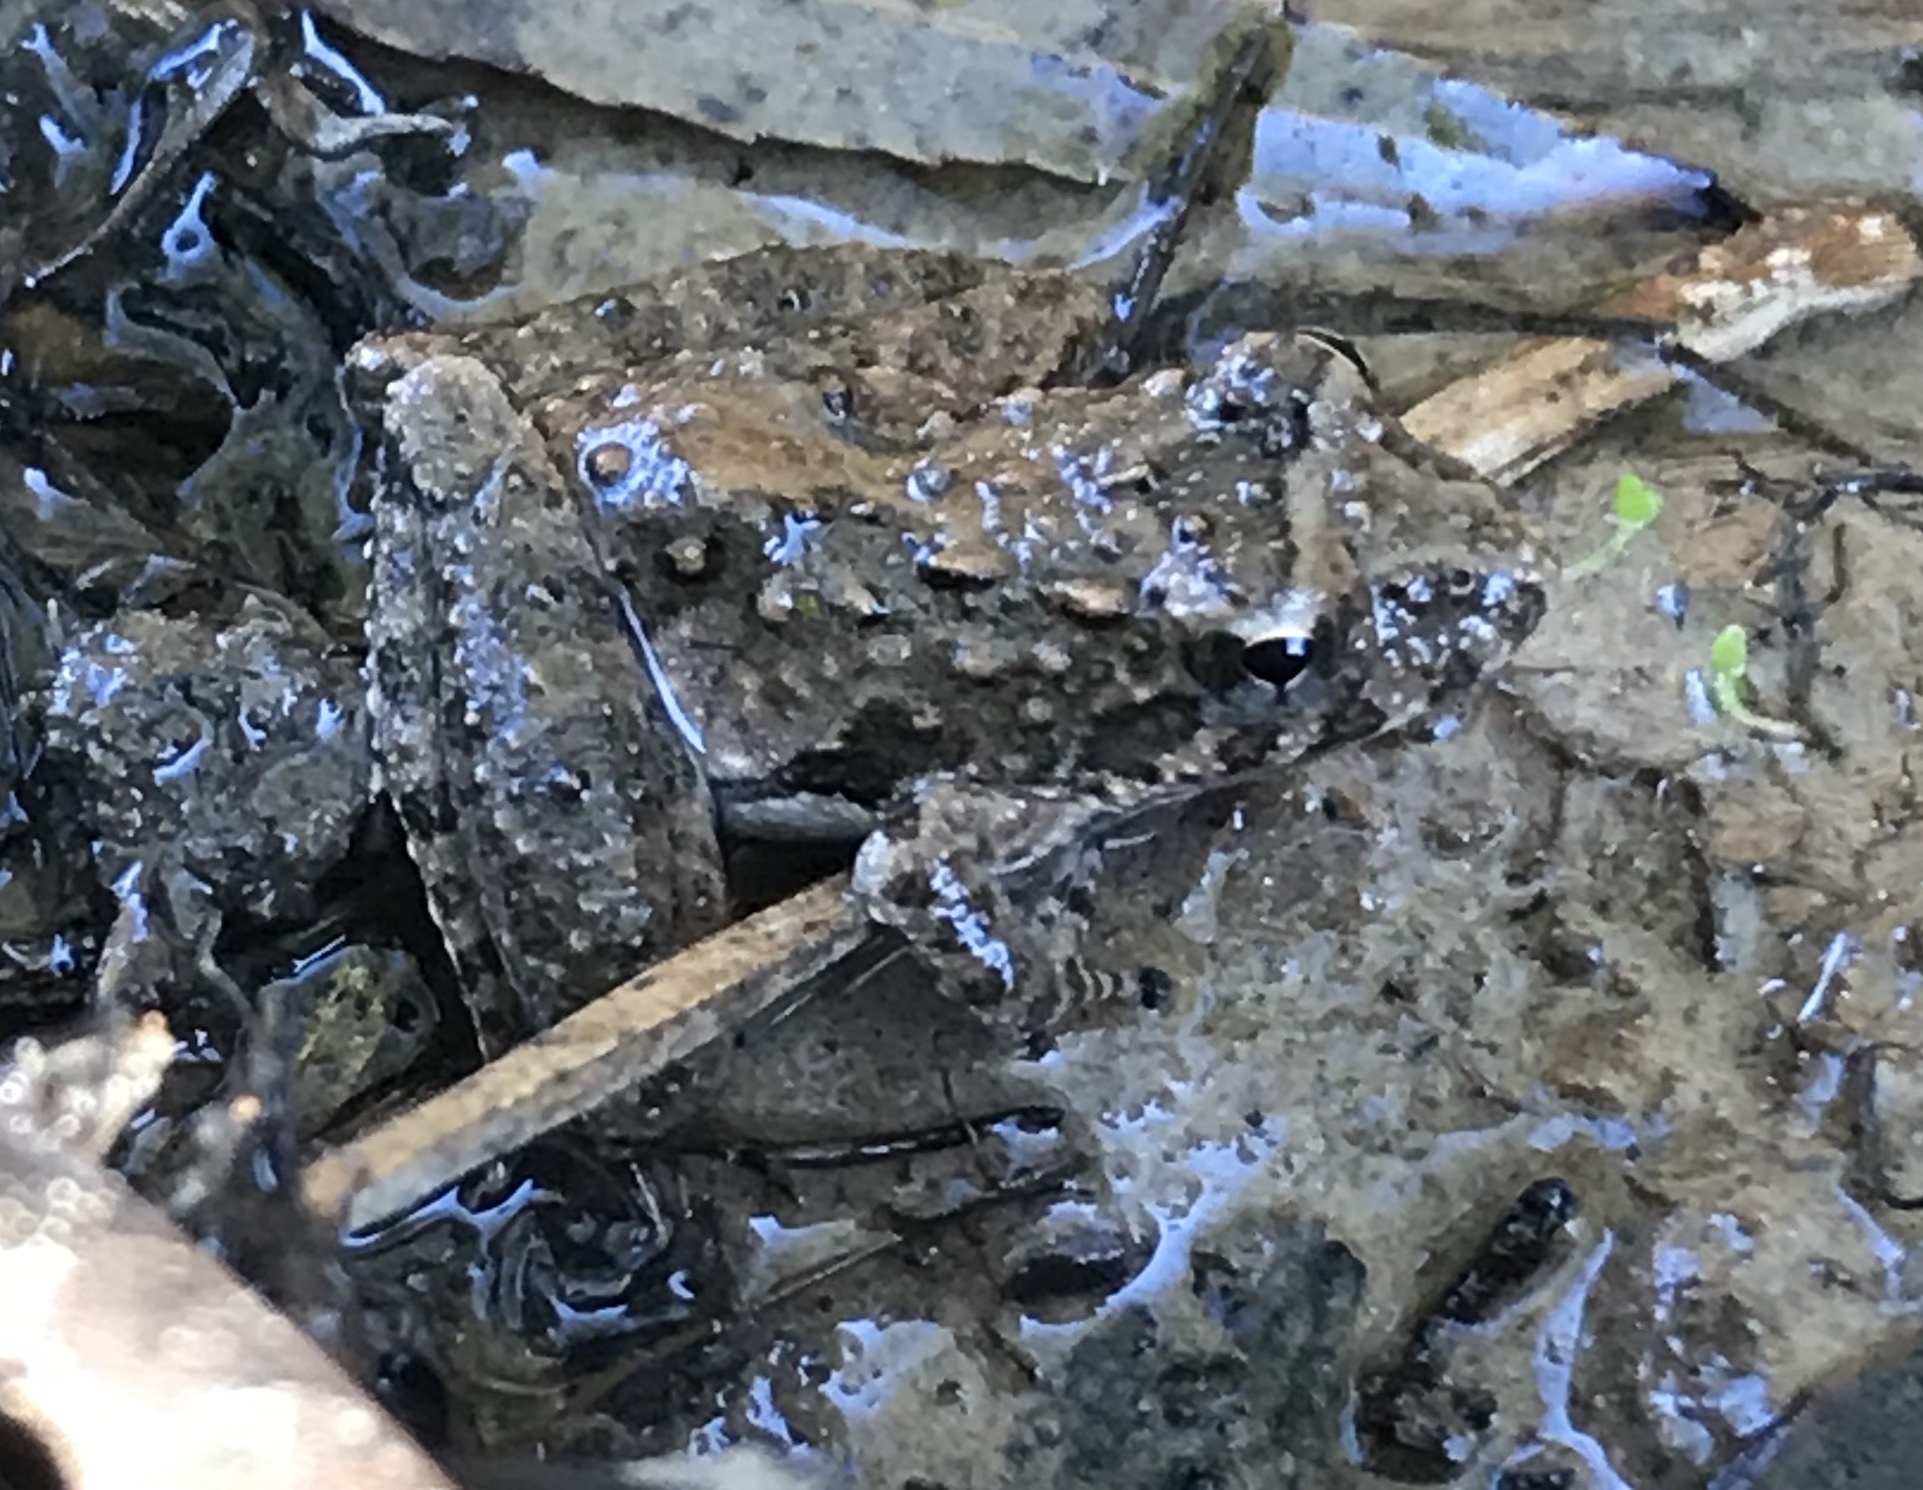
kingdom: Animalia
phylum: Chordata
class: Amphibia
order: Anura
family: Hylidae
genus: Acris
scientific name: Acris blanchardi
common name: Blanchard's cricket frog
